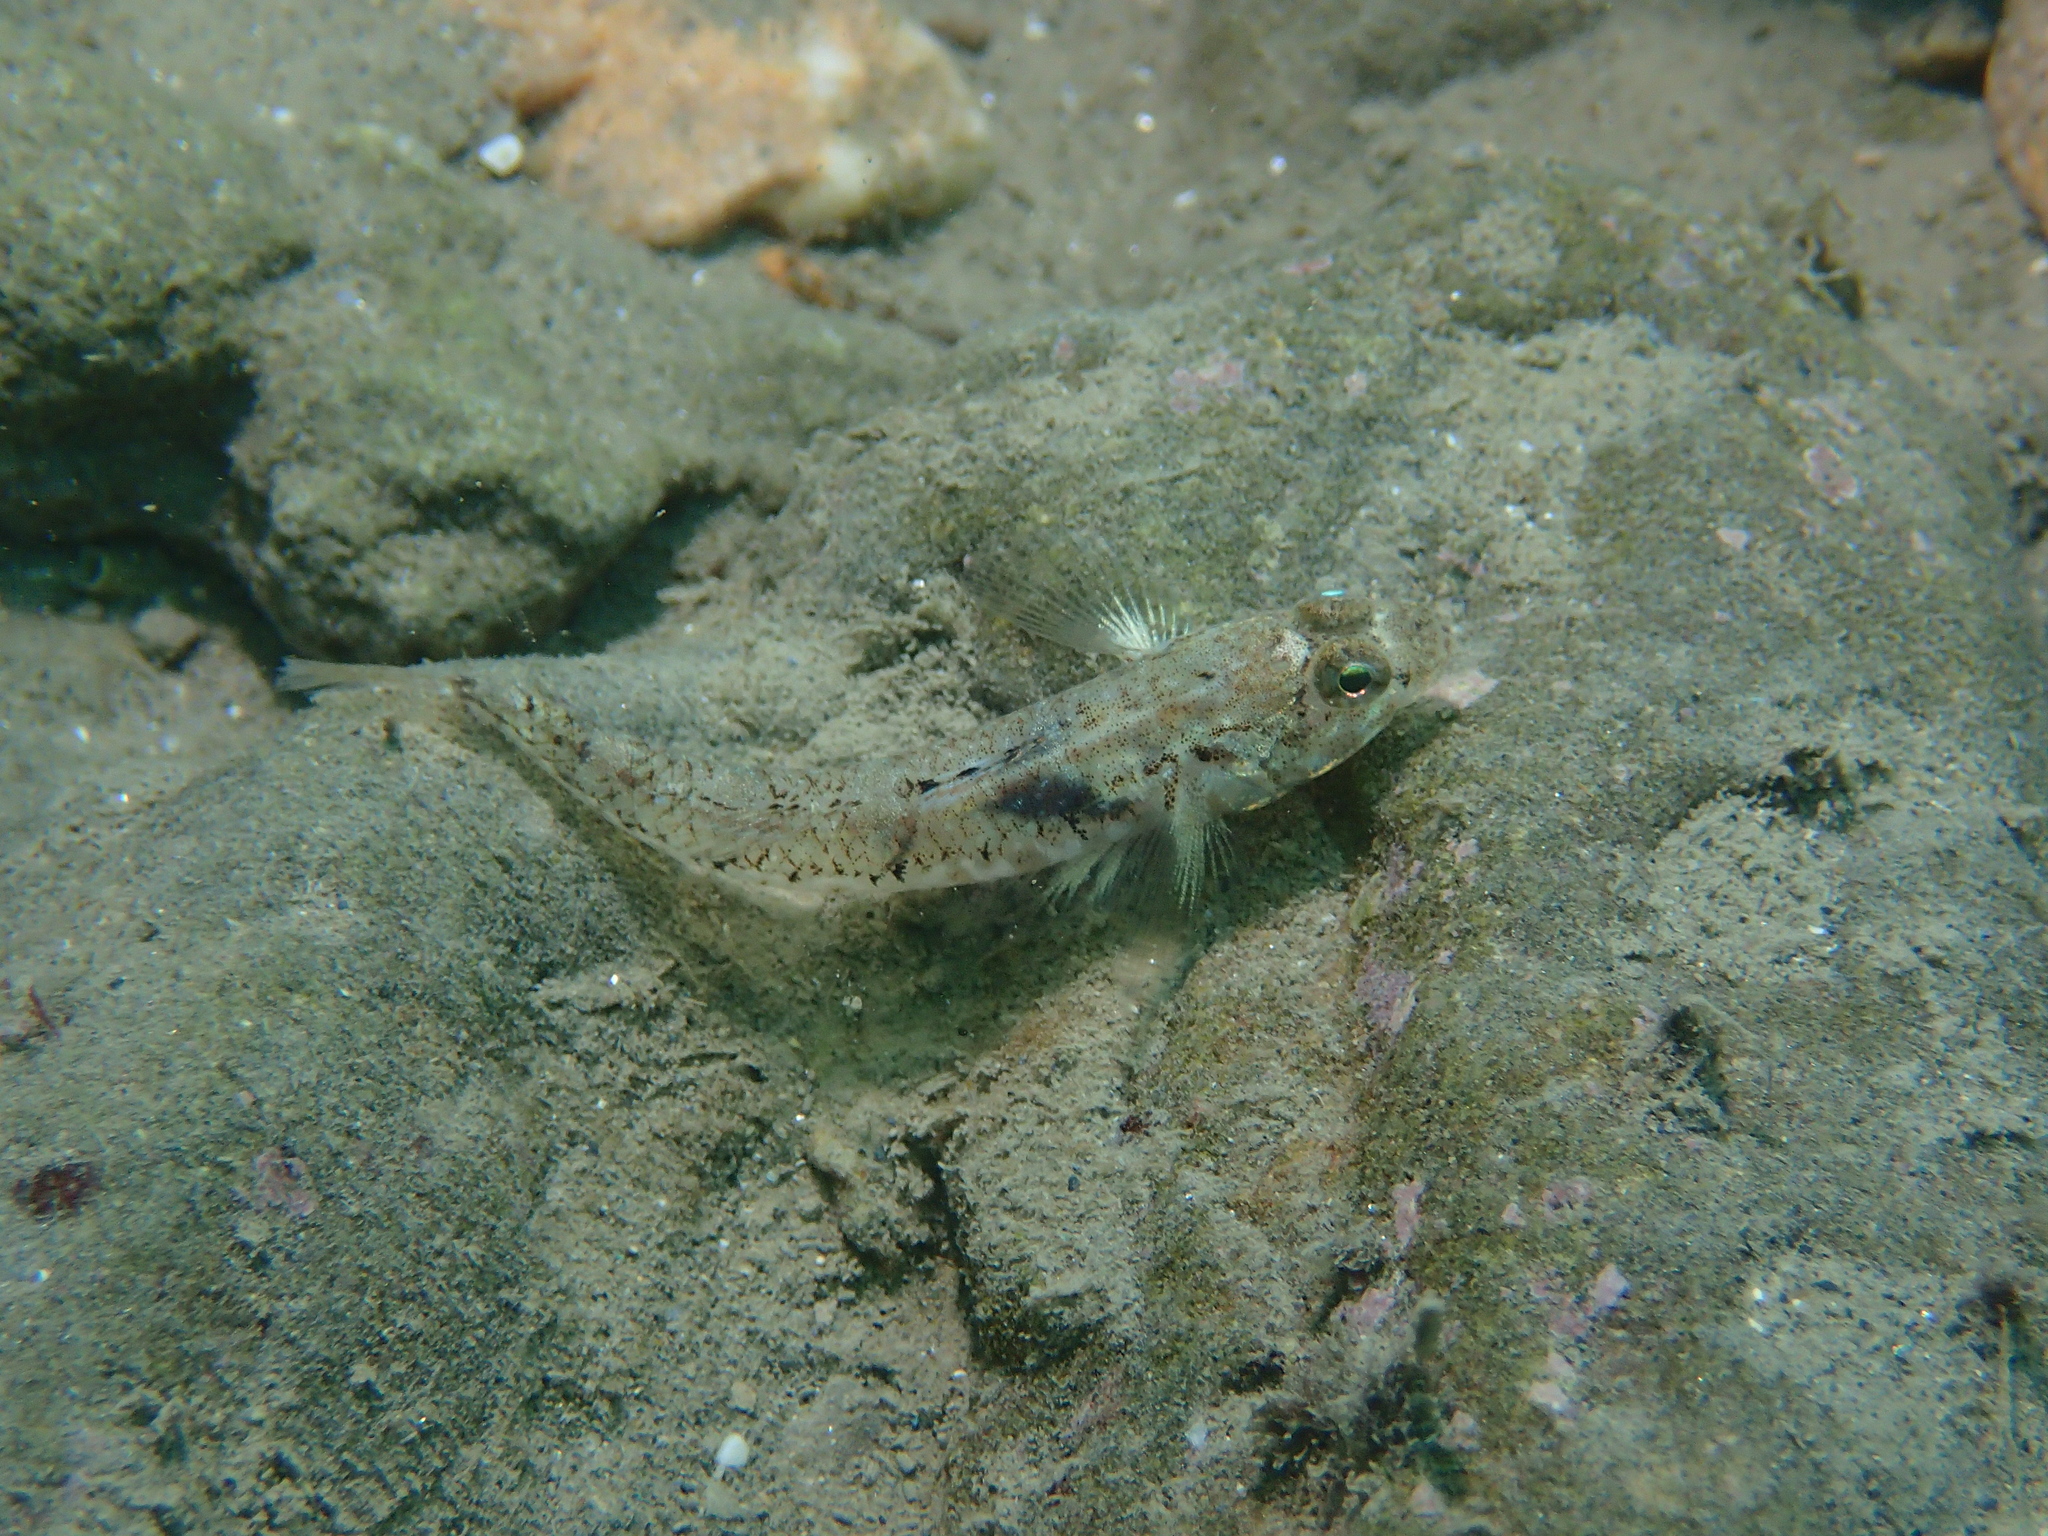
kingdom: Animalia
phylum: Chordata
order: Perciformes
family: Gobiidae
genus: Pomatoschistus
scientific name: Pomatoschistus pictus
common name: Painted goby
